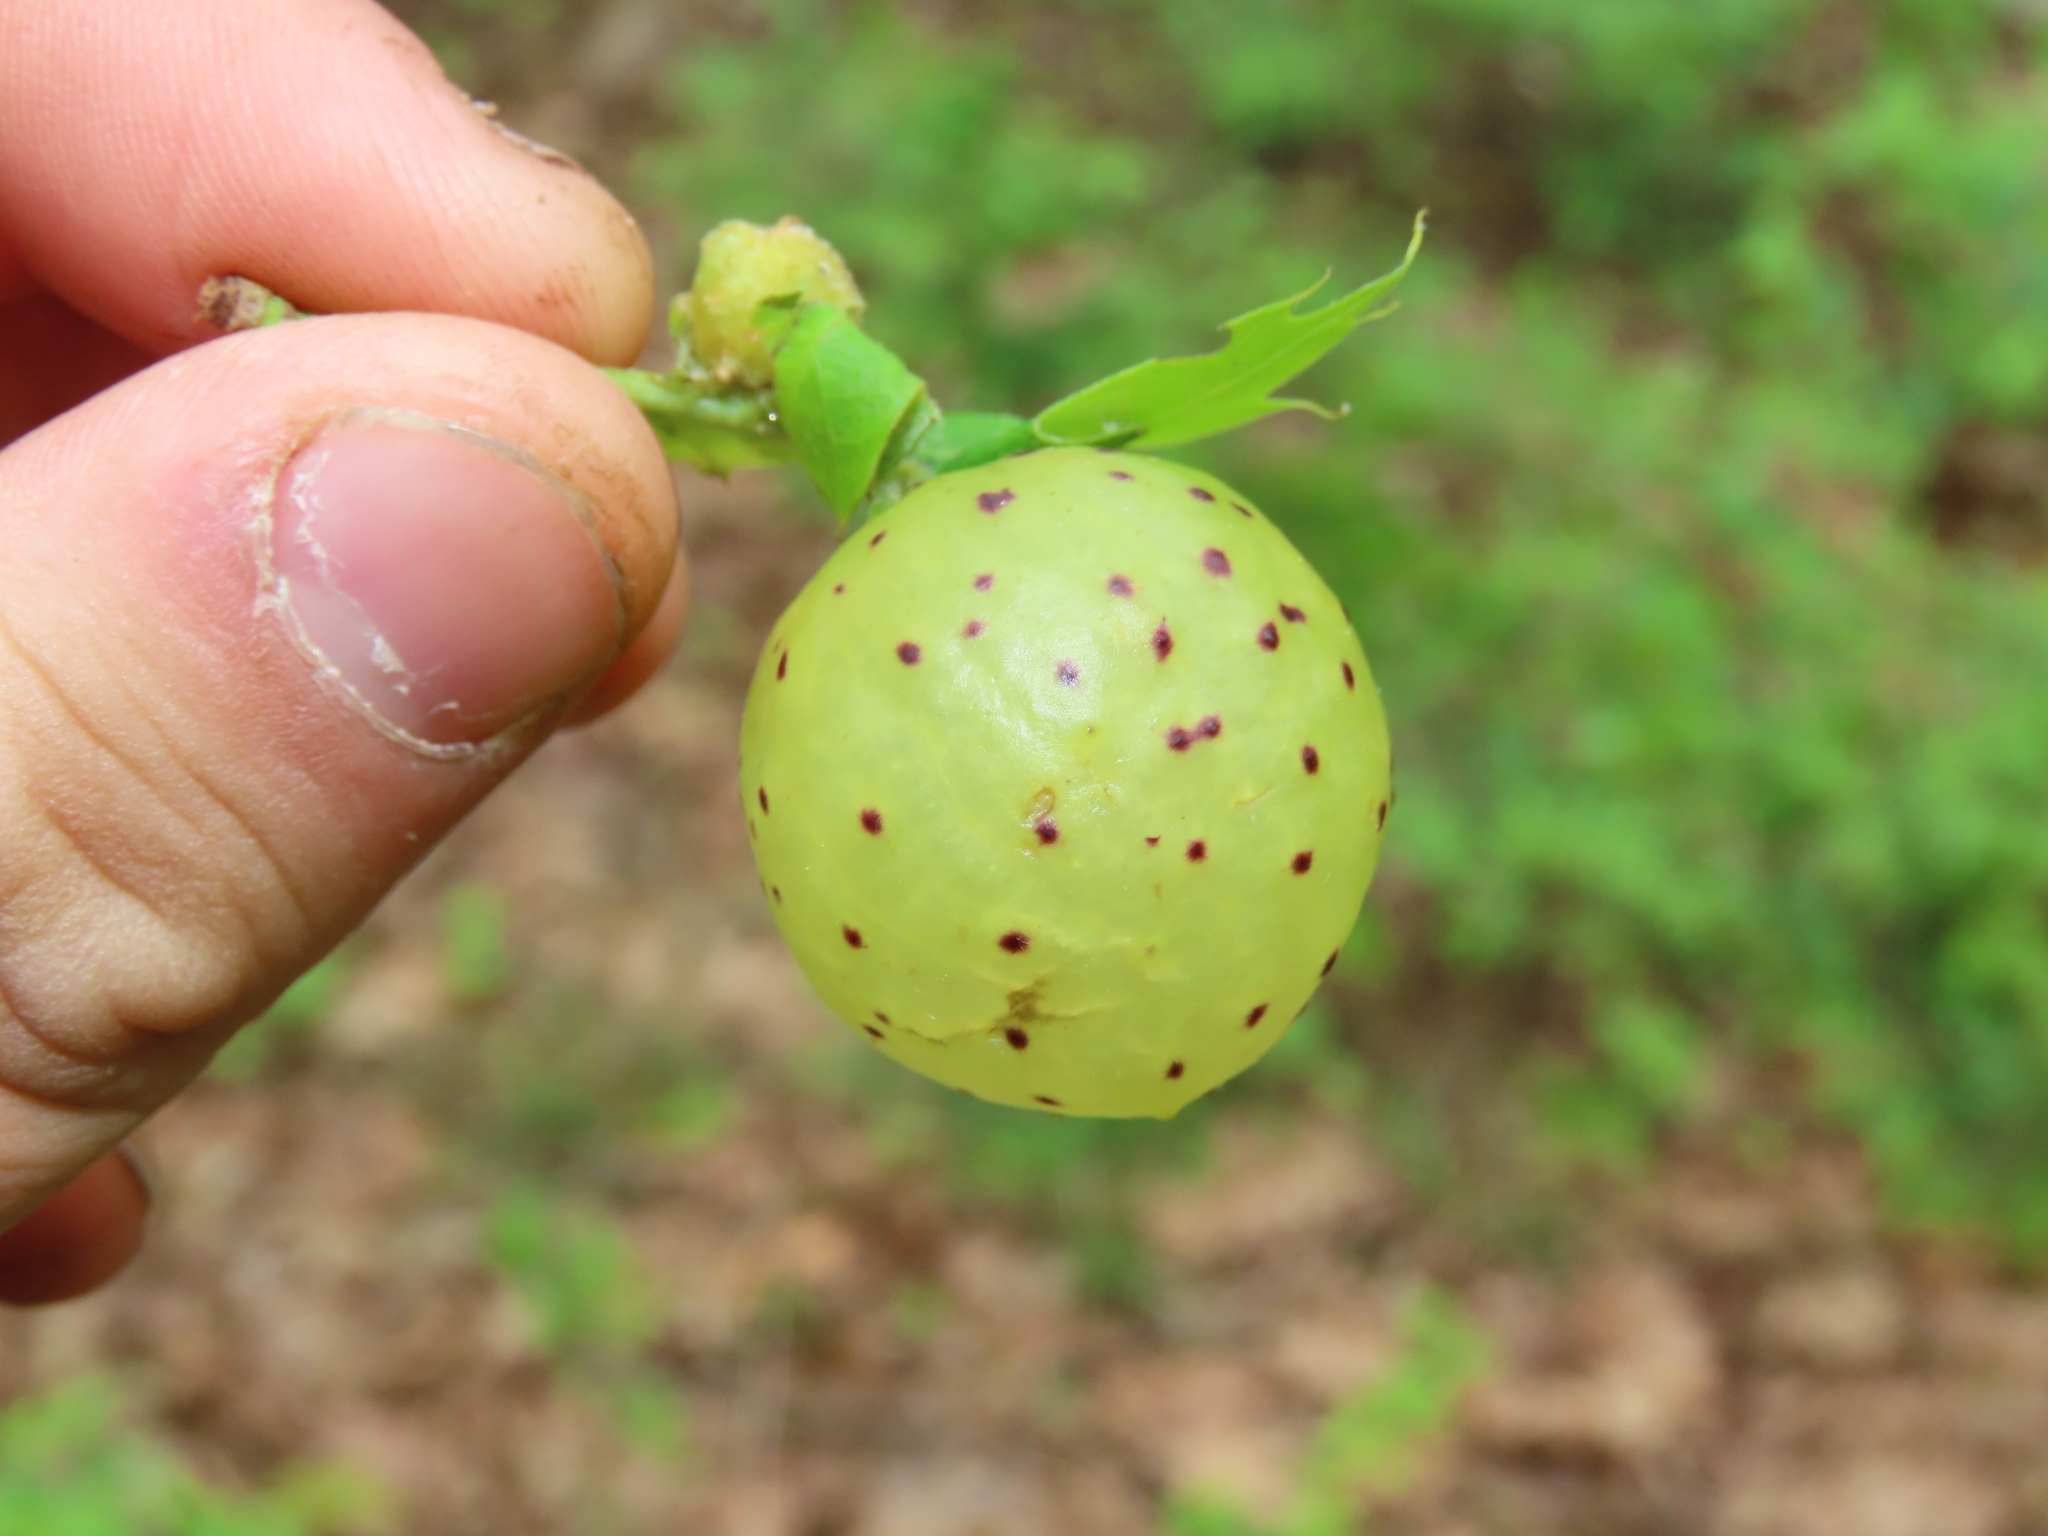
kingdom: Animalia
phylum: Arthropoda
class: Insecta
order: Hymenoptera
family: Cynipidae
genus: Amphibolips
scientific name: Amphibolips
